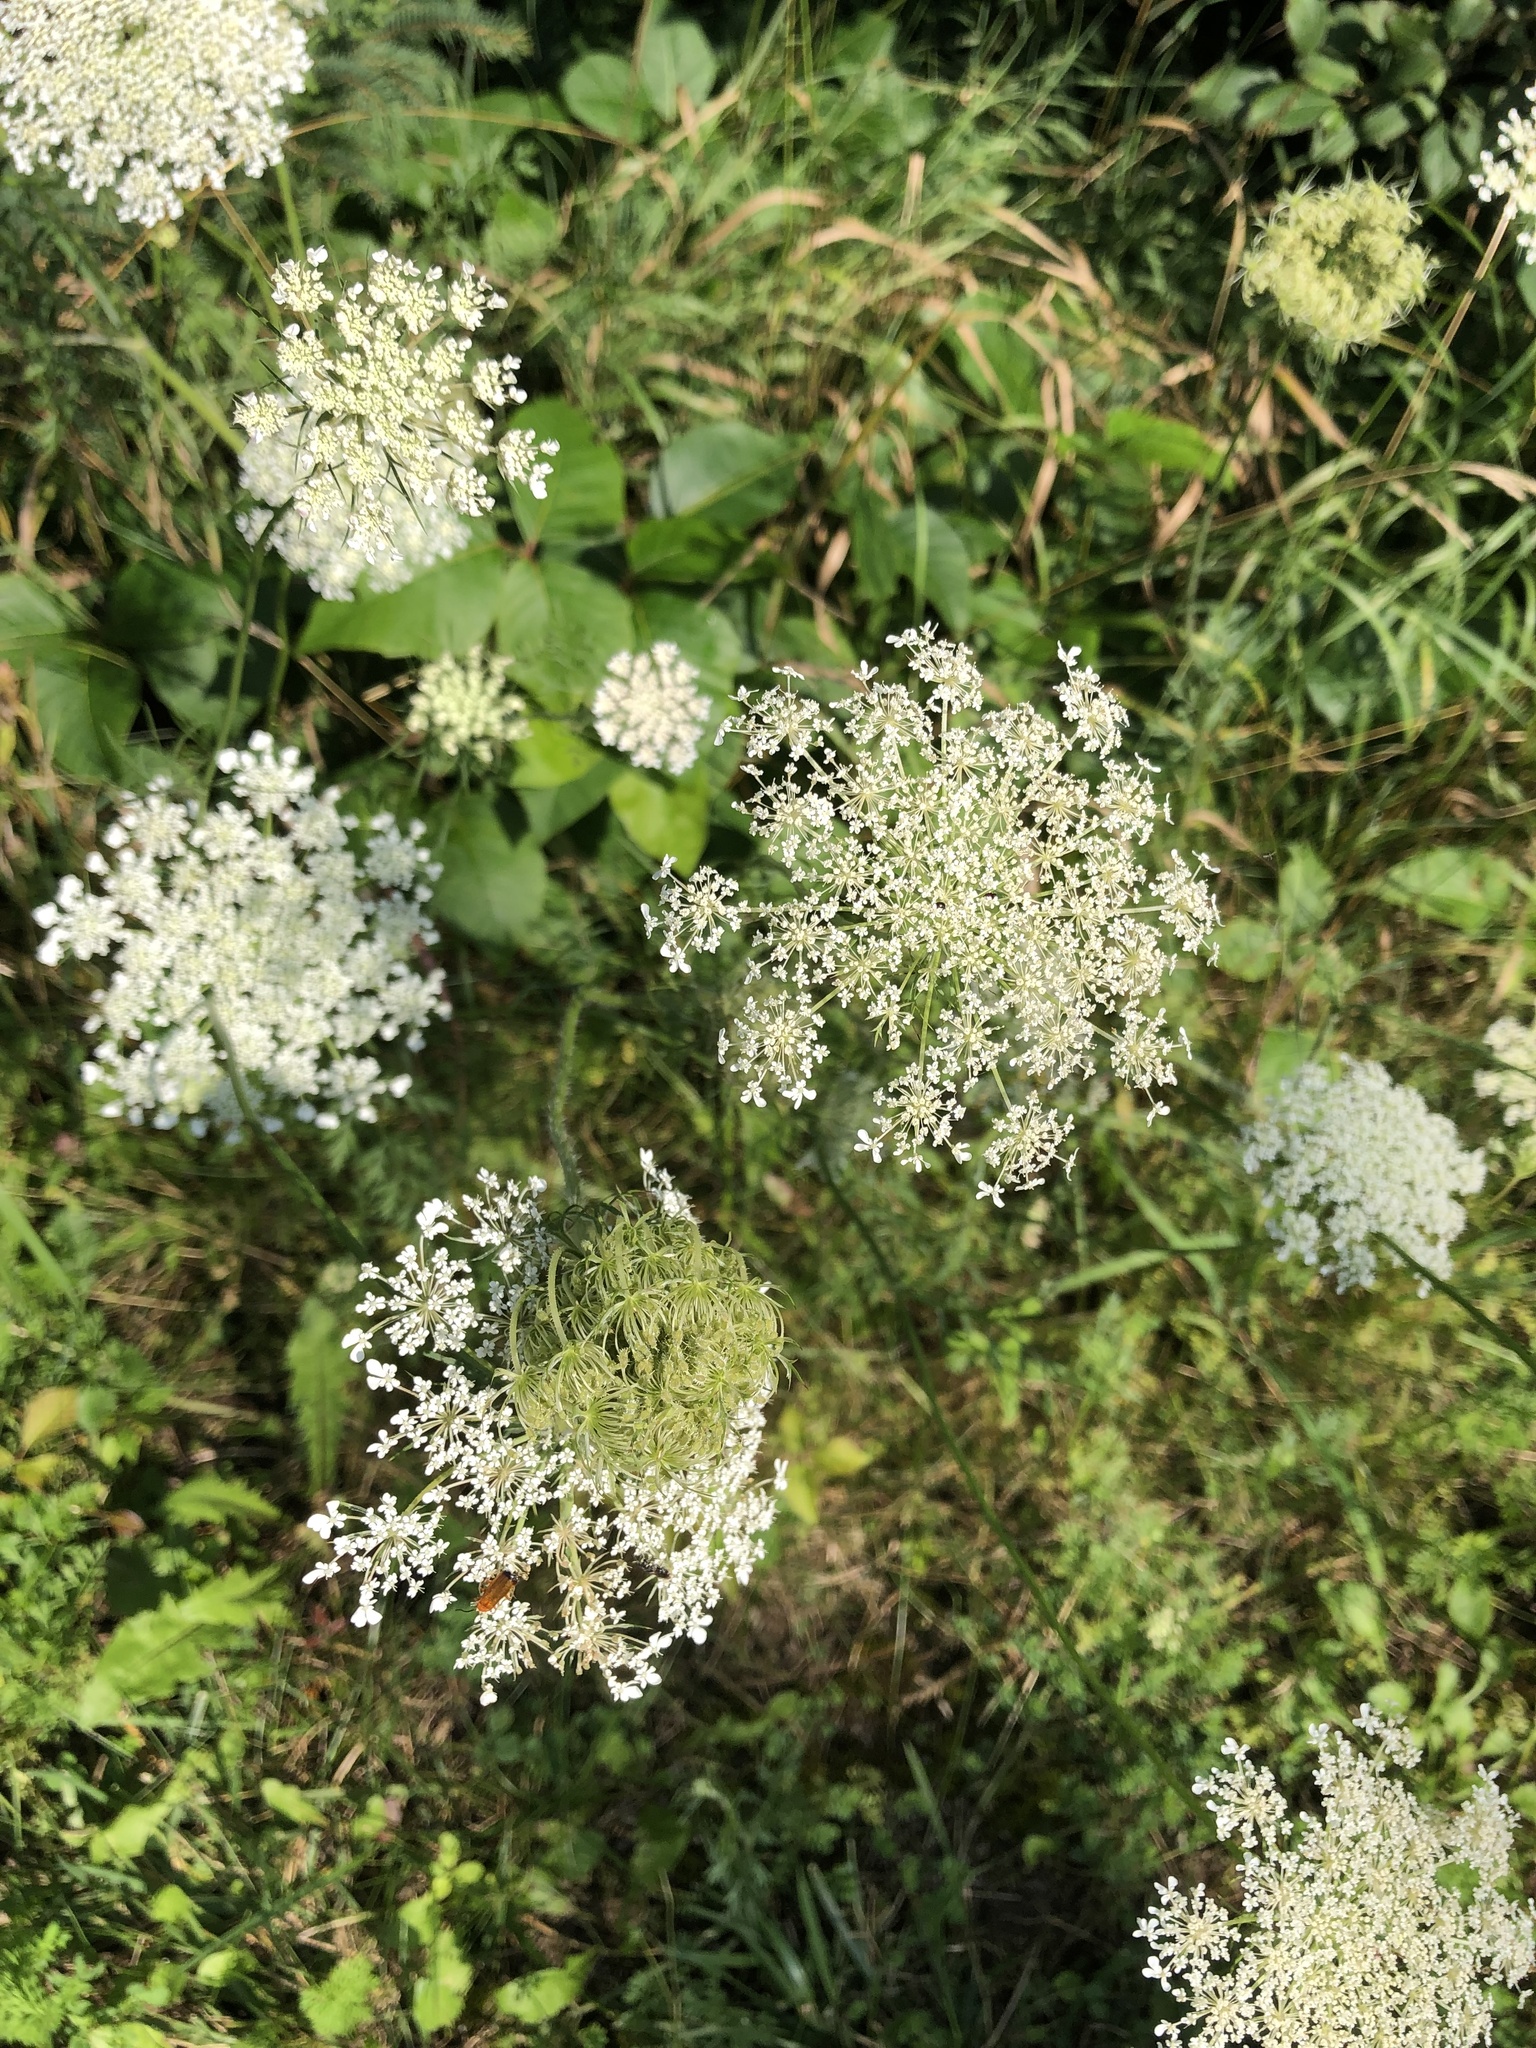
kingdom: Plantae
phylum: Tracheophyta
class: Magnoliopsida
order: Apiales
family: Apiaceae
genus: Daucus
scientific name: Daucus carota
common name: Wild carrot
